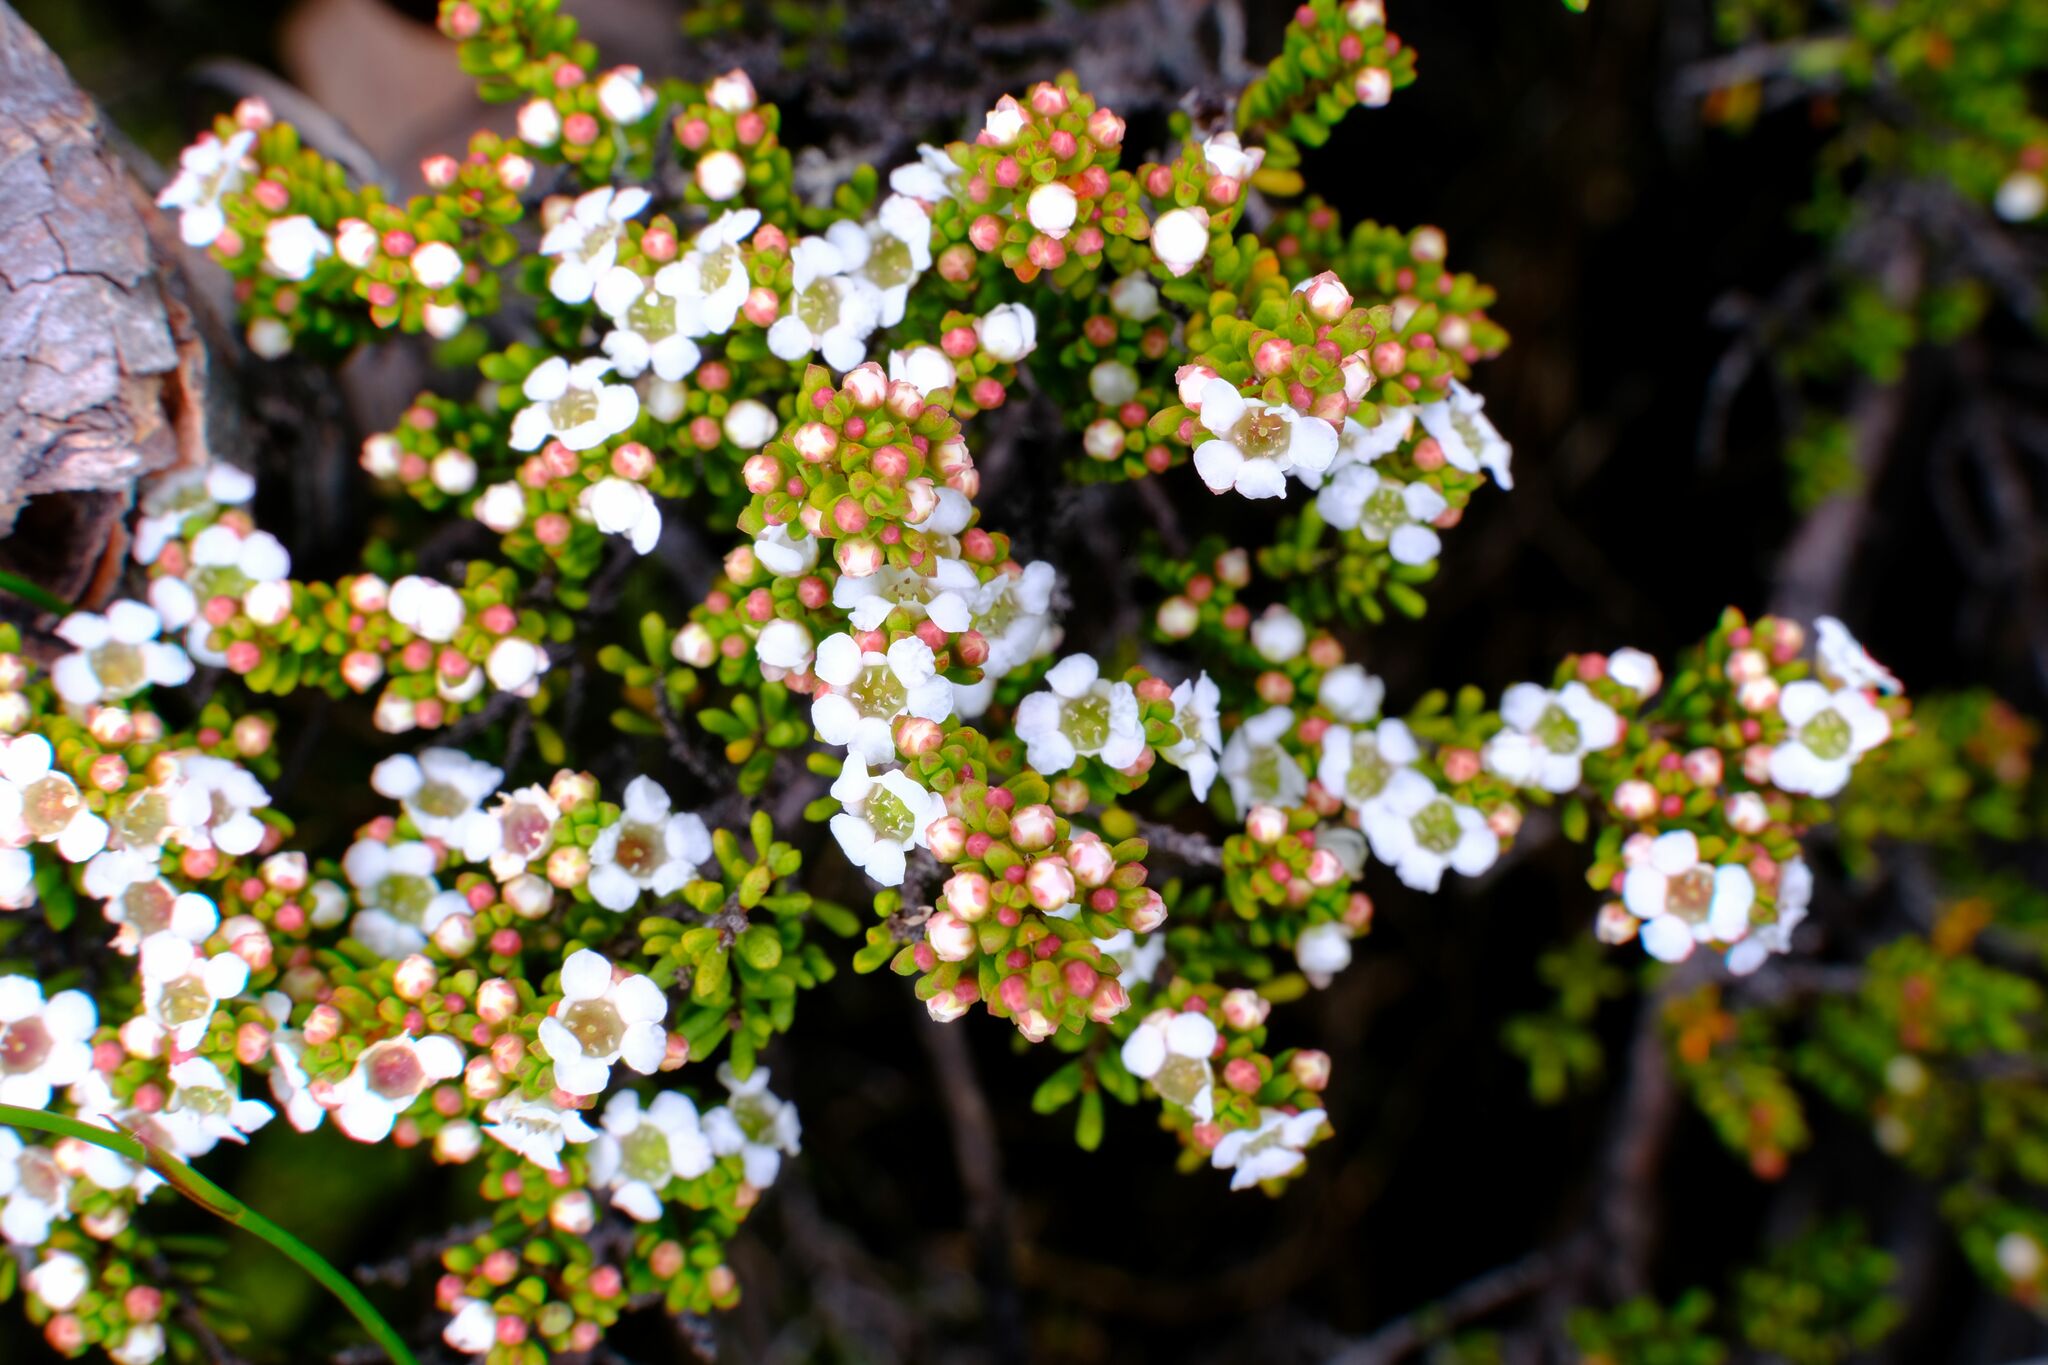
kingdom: Plantae
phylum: Tracheophyta
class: Magnoliopsida
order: Myrtales
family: Myrtaceae
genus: Baeckea
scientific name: Baeckea gunniana
